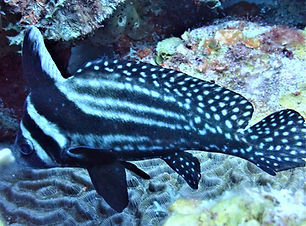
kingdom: Animalia
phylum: Chordata
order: Perciformes
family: Sciaenidae
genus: Equetus
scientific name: Equetus punctatus
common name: Spotted drum
